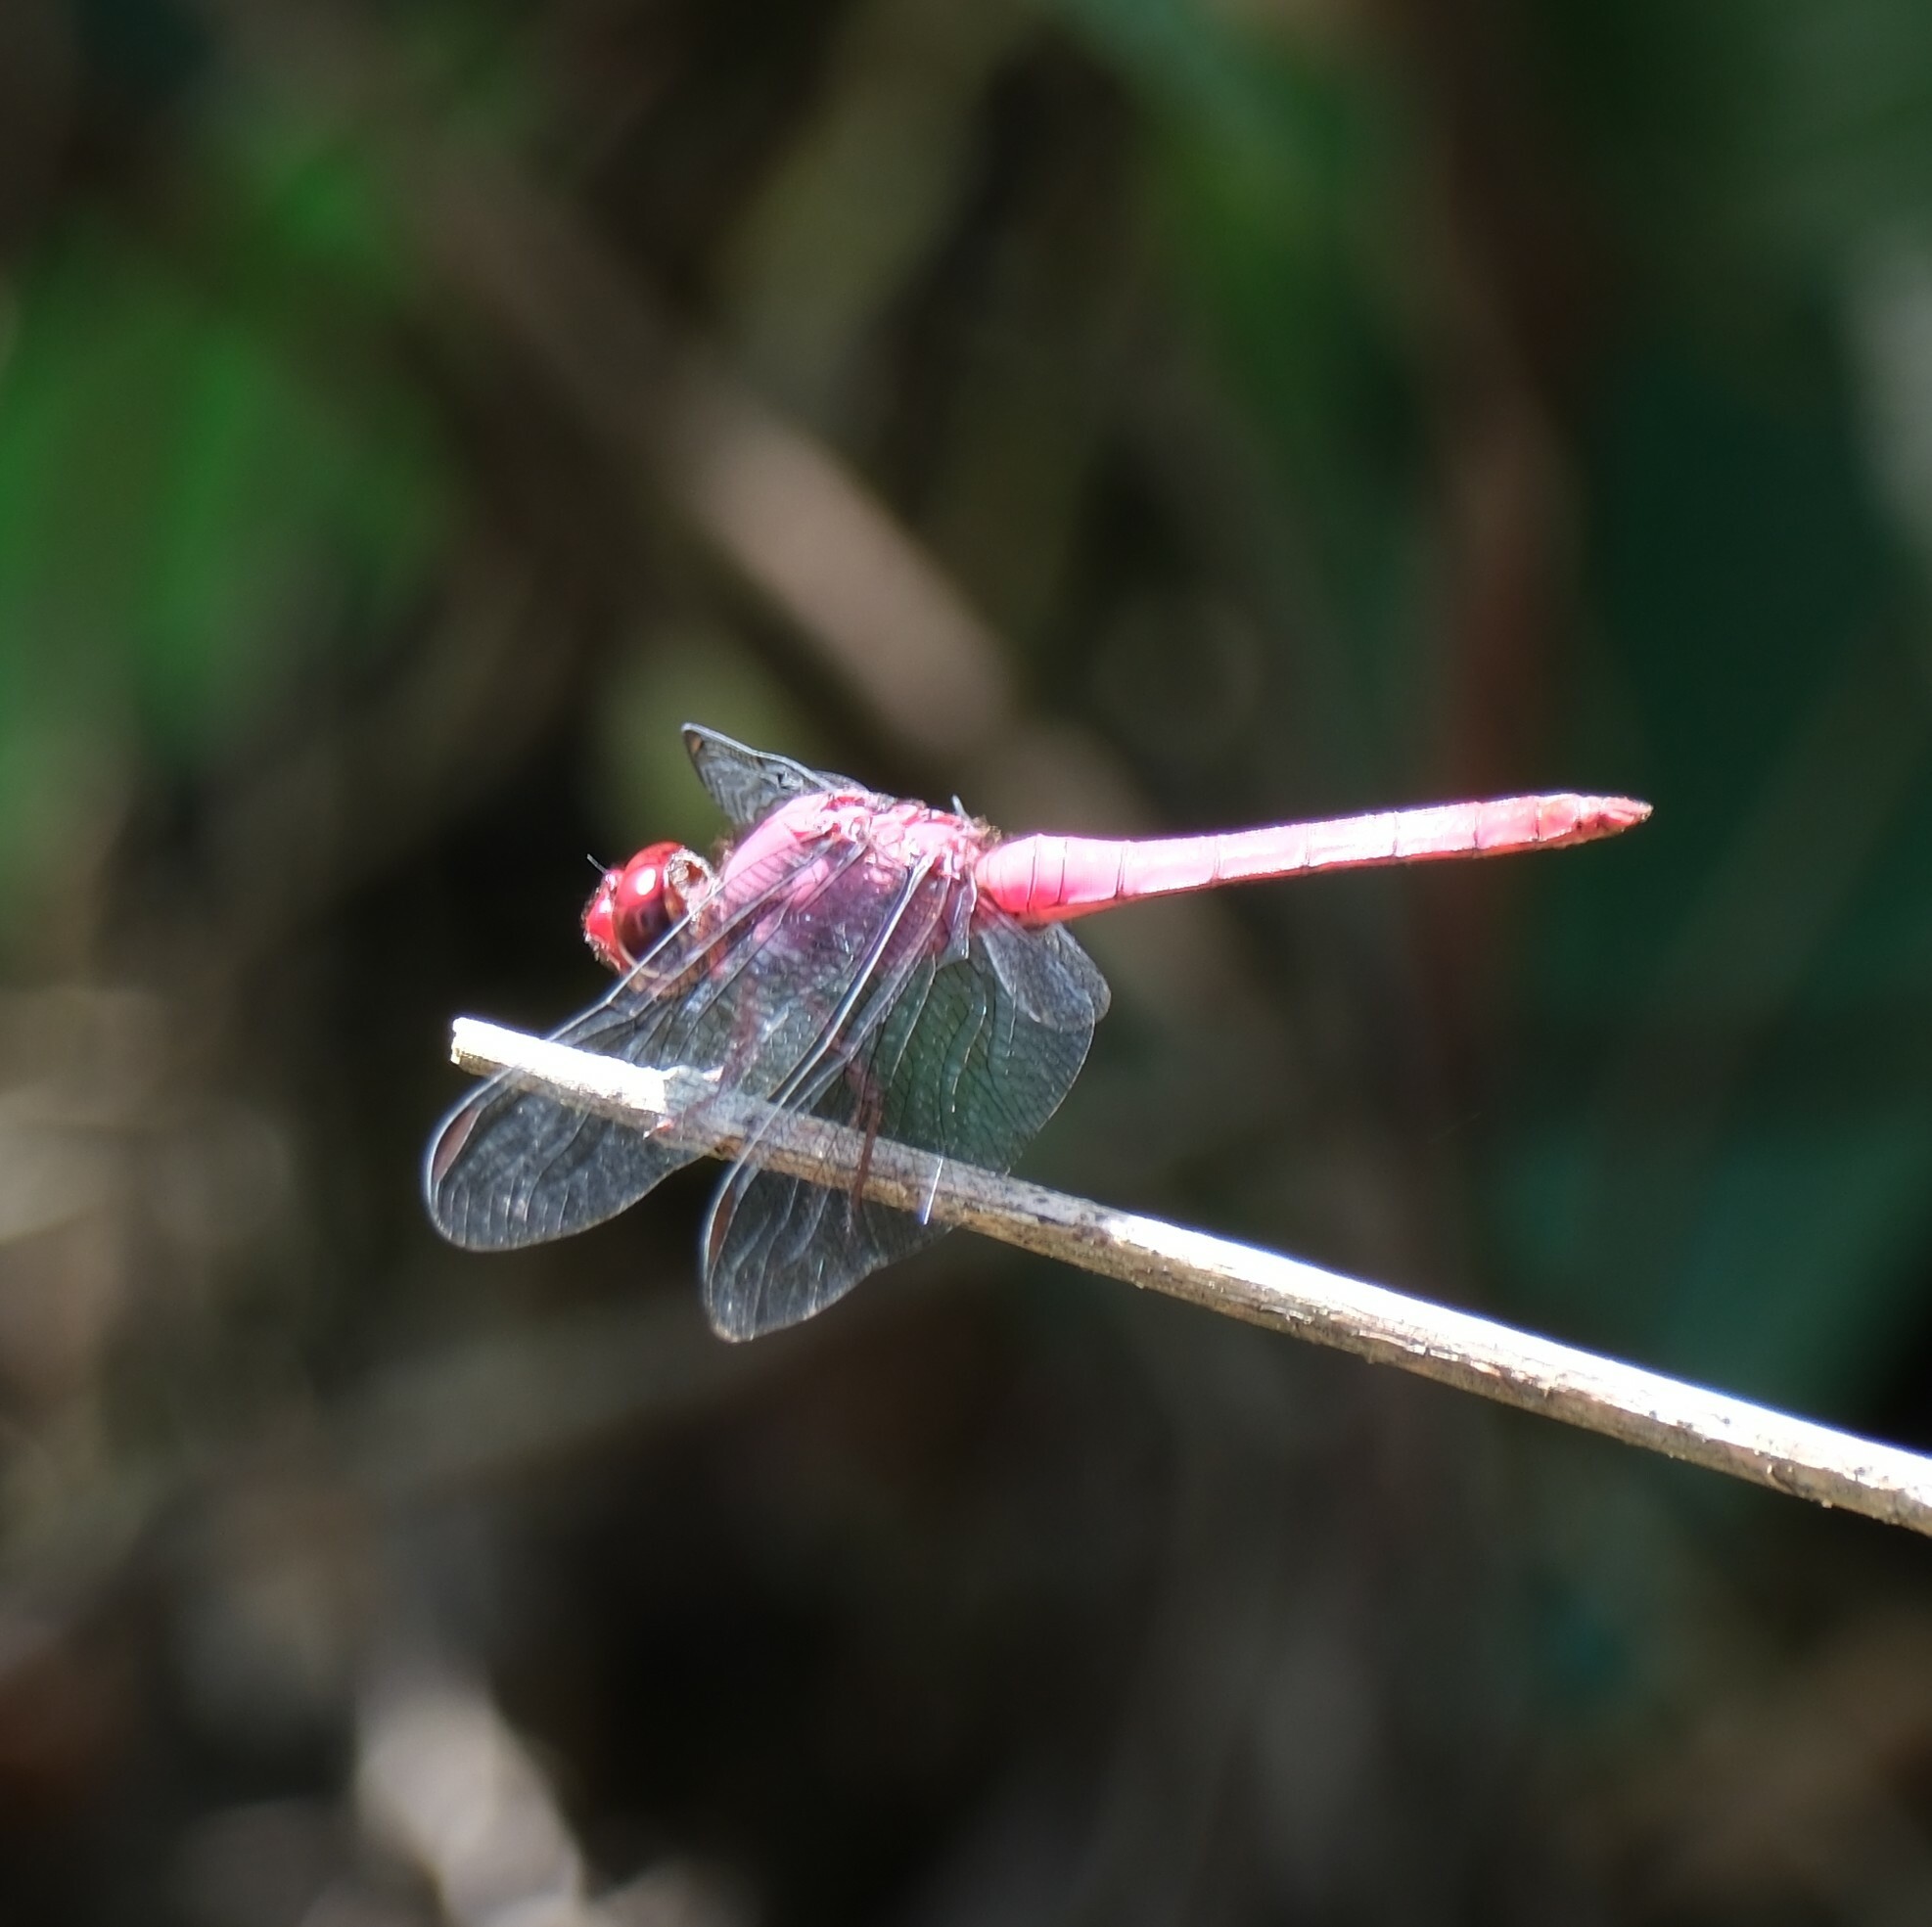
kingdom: Animalia
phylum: Arthropoda
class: Insecta
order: Odonata
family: Libellulidae
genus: Orthemis
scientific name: Orthemis discolor
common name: Carmine skimmer
